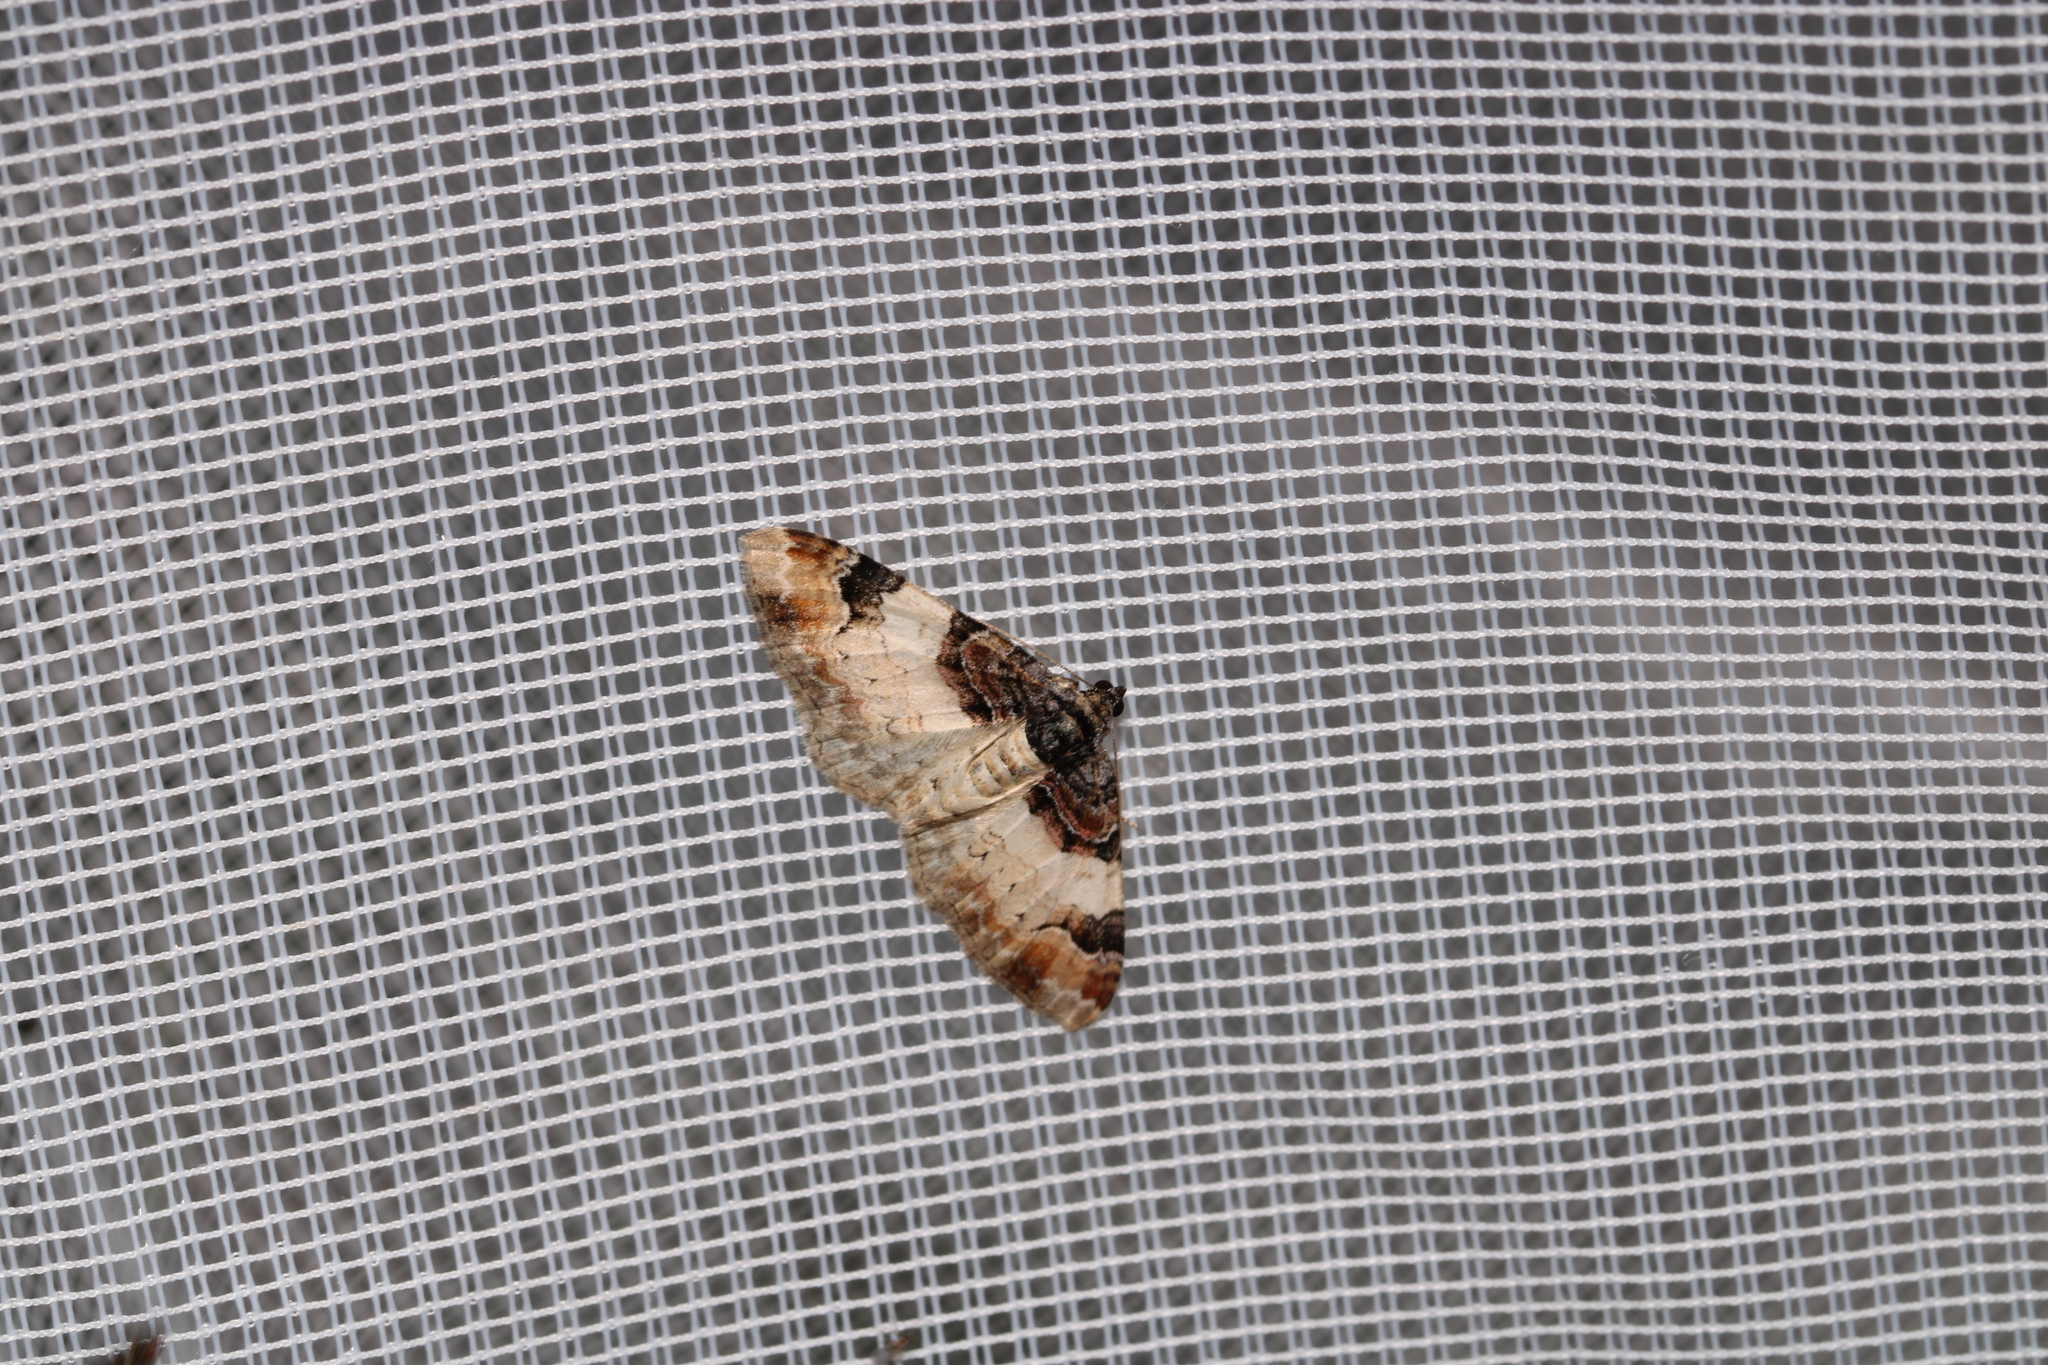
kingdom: Animalia
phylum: Arthropoda
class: Insecta
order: Lepidoptera
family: Geometridae
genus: Catarhoe
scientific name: Catarhoe cuculata
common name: Royal mantle
